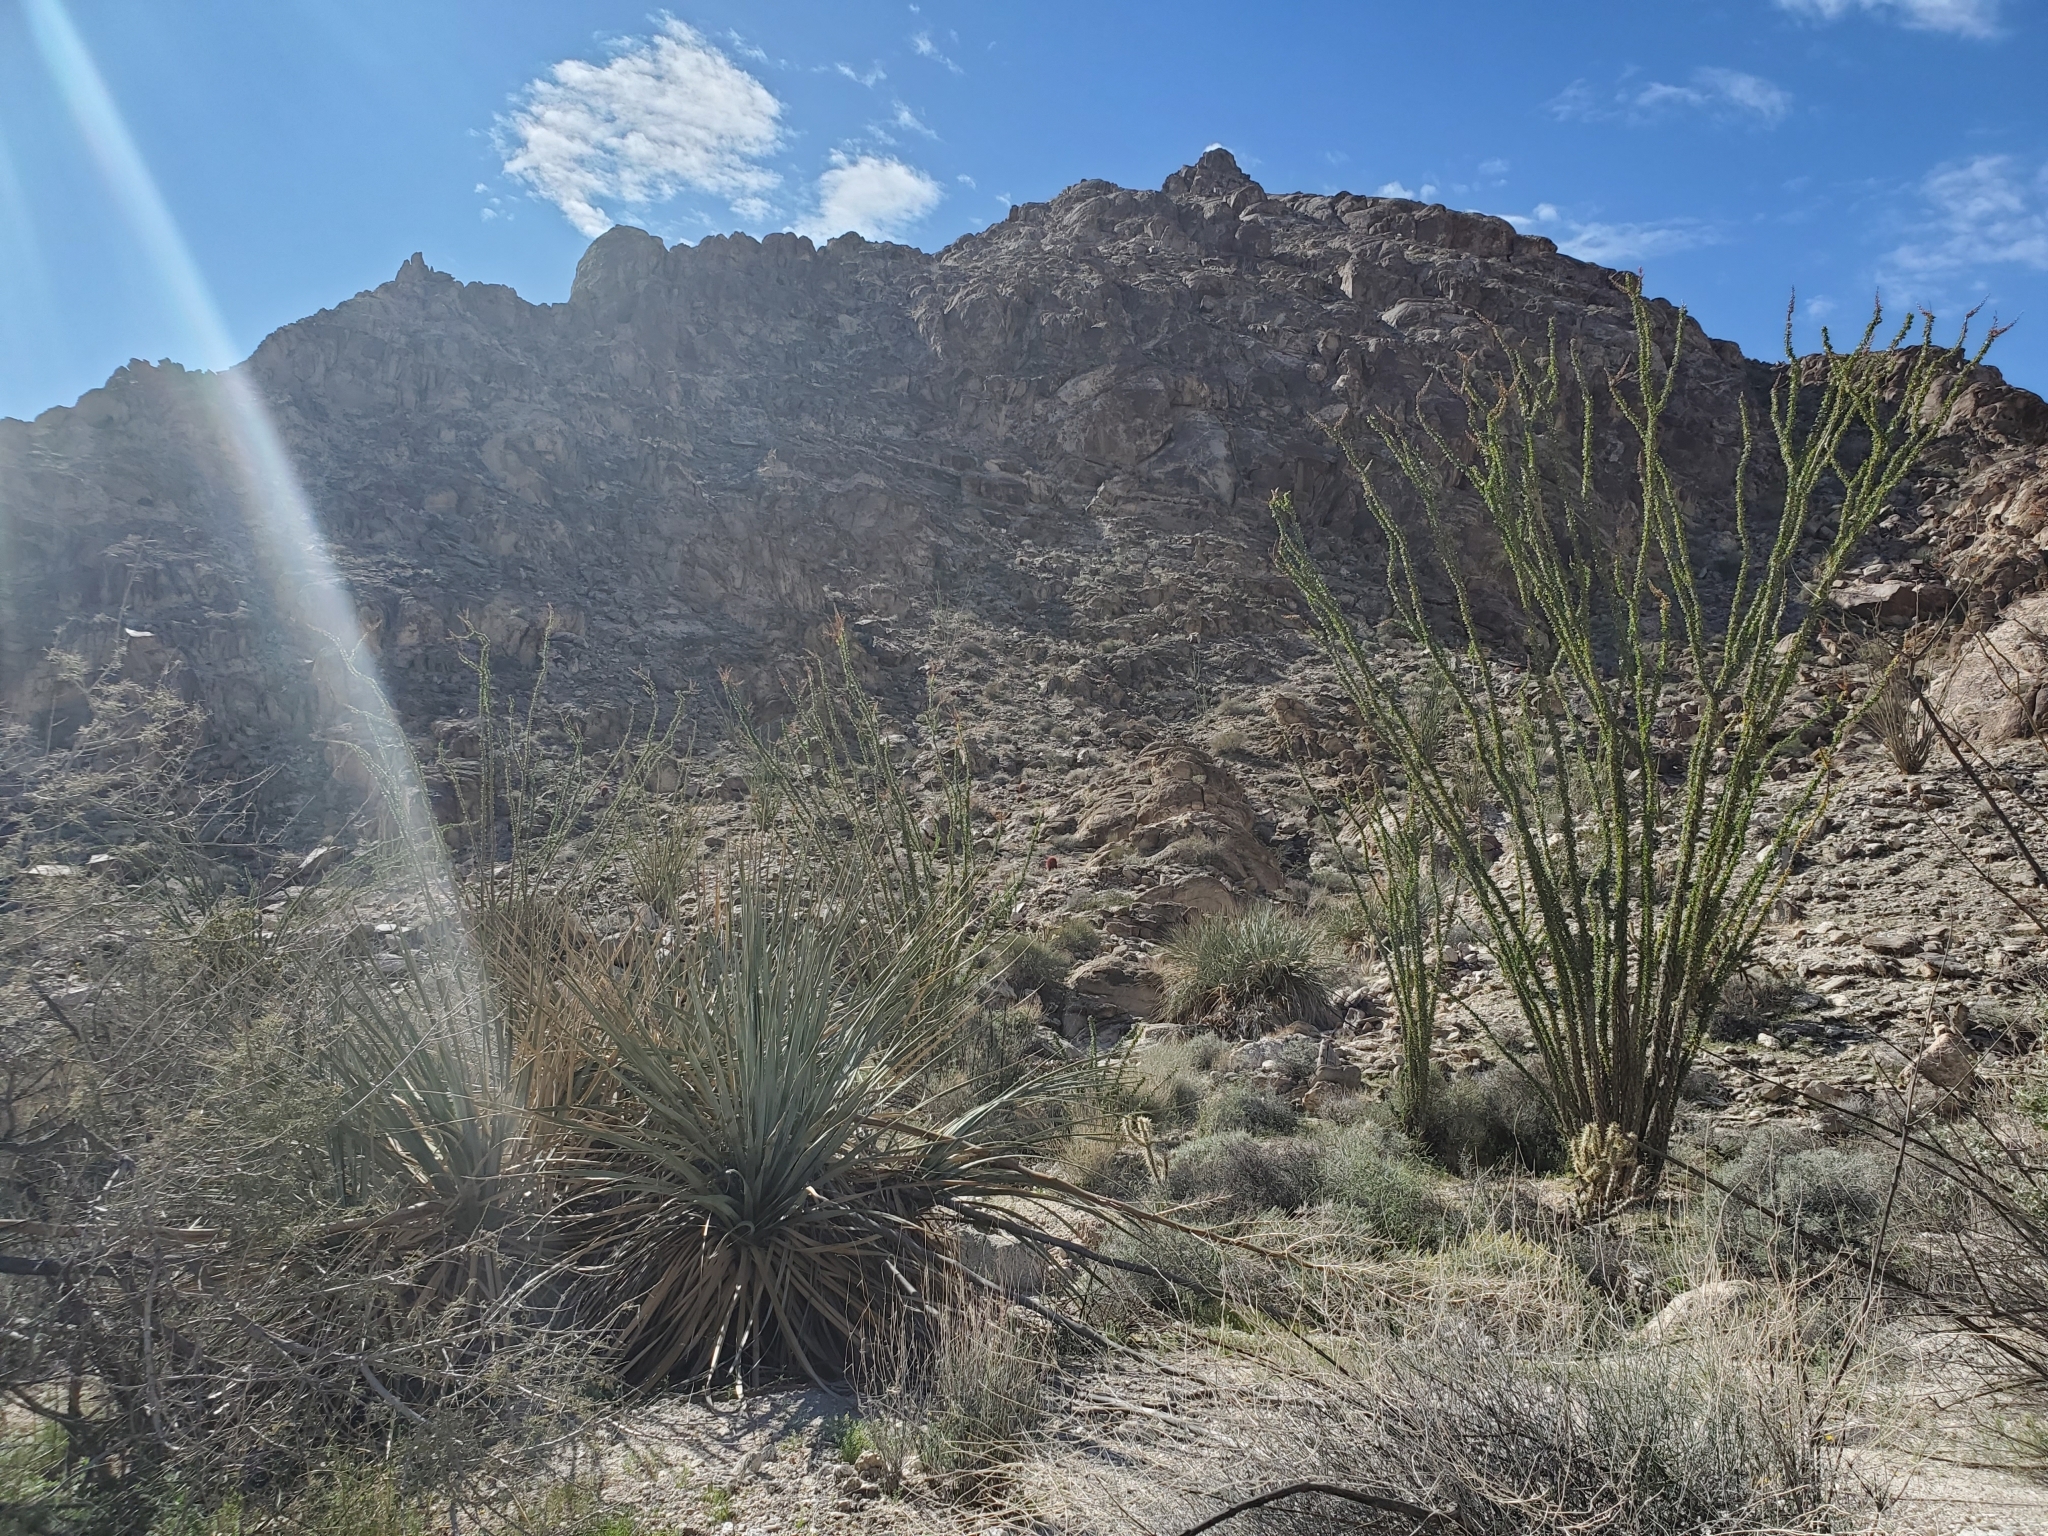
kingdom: Plantae
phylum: Tracheophyta
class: Magnoliopsida
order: Ericales
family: Fouquieriaceae
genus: Fouquieria
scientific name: Fouquieria splendens
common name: Vine-cactus
